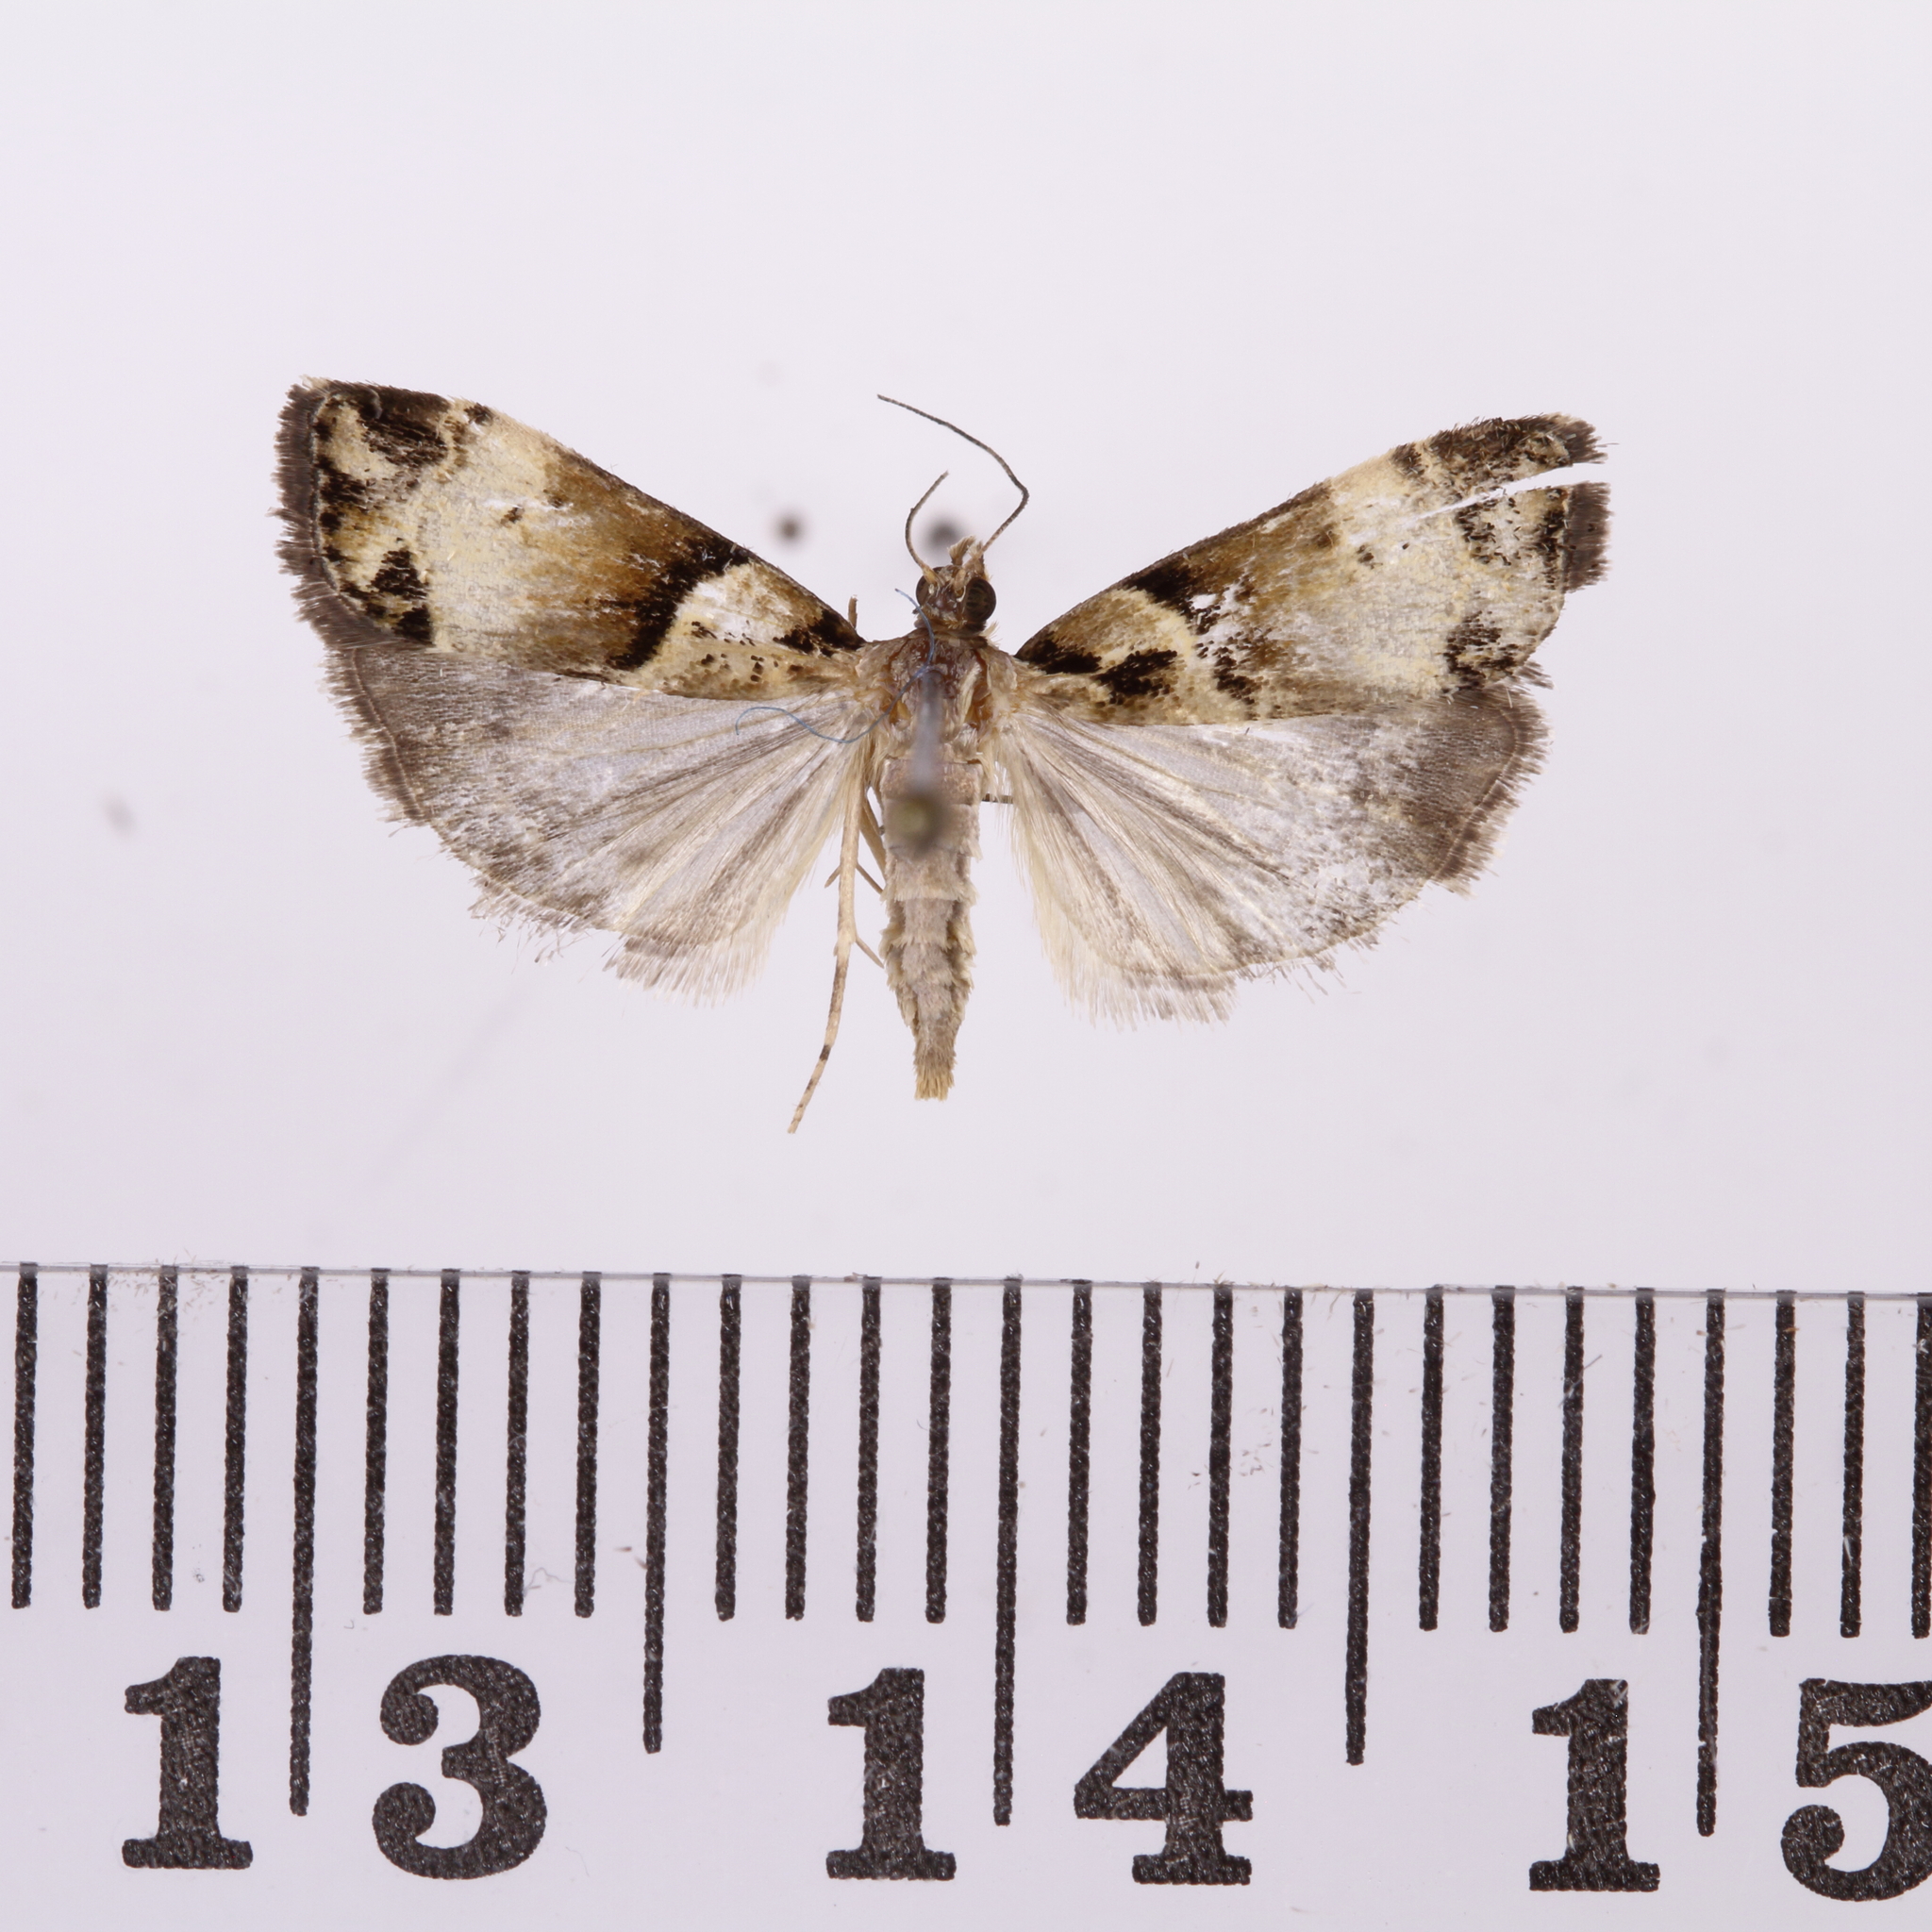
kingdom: Animalia
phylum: Arthropoda
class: Insecta
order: Lepidoptera
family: Crambidae
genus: Eudonia
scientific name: Eudonia periphanes
